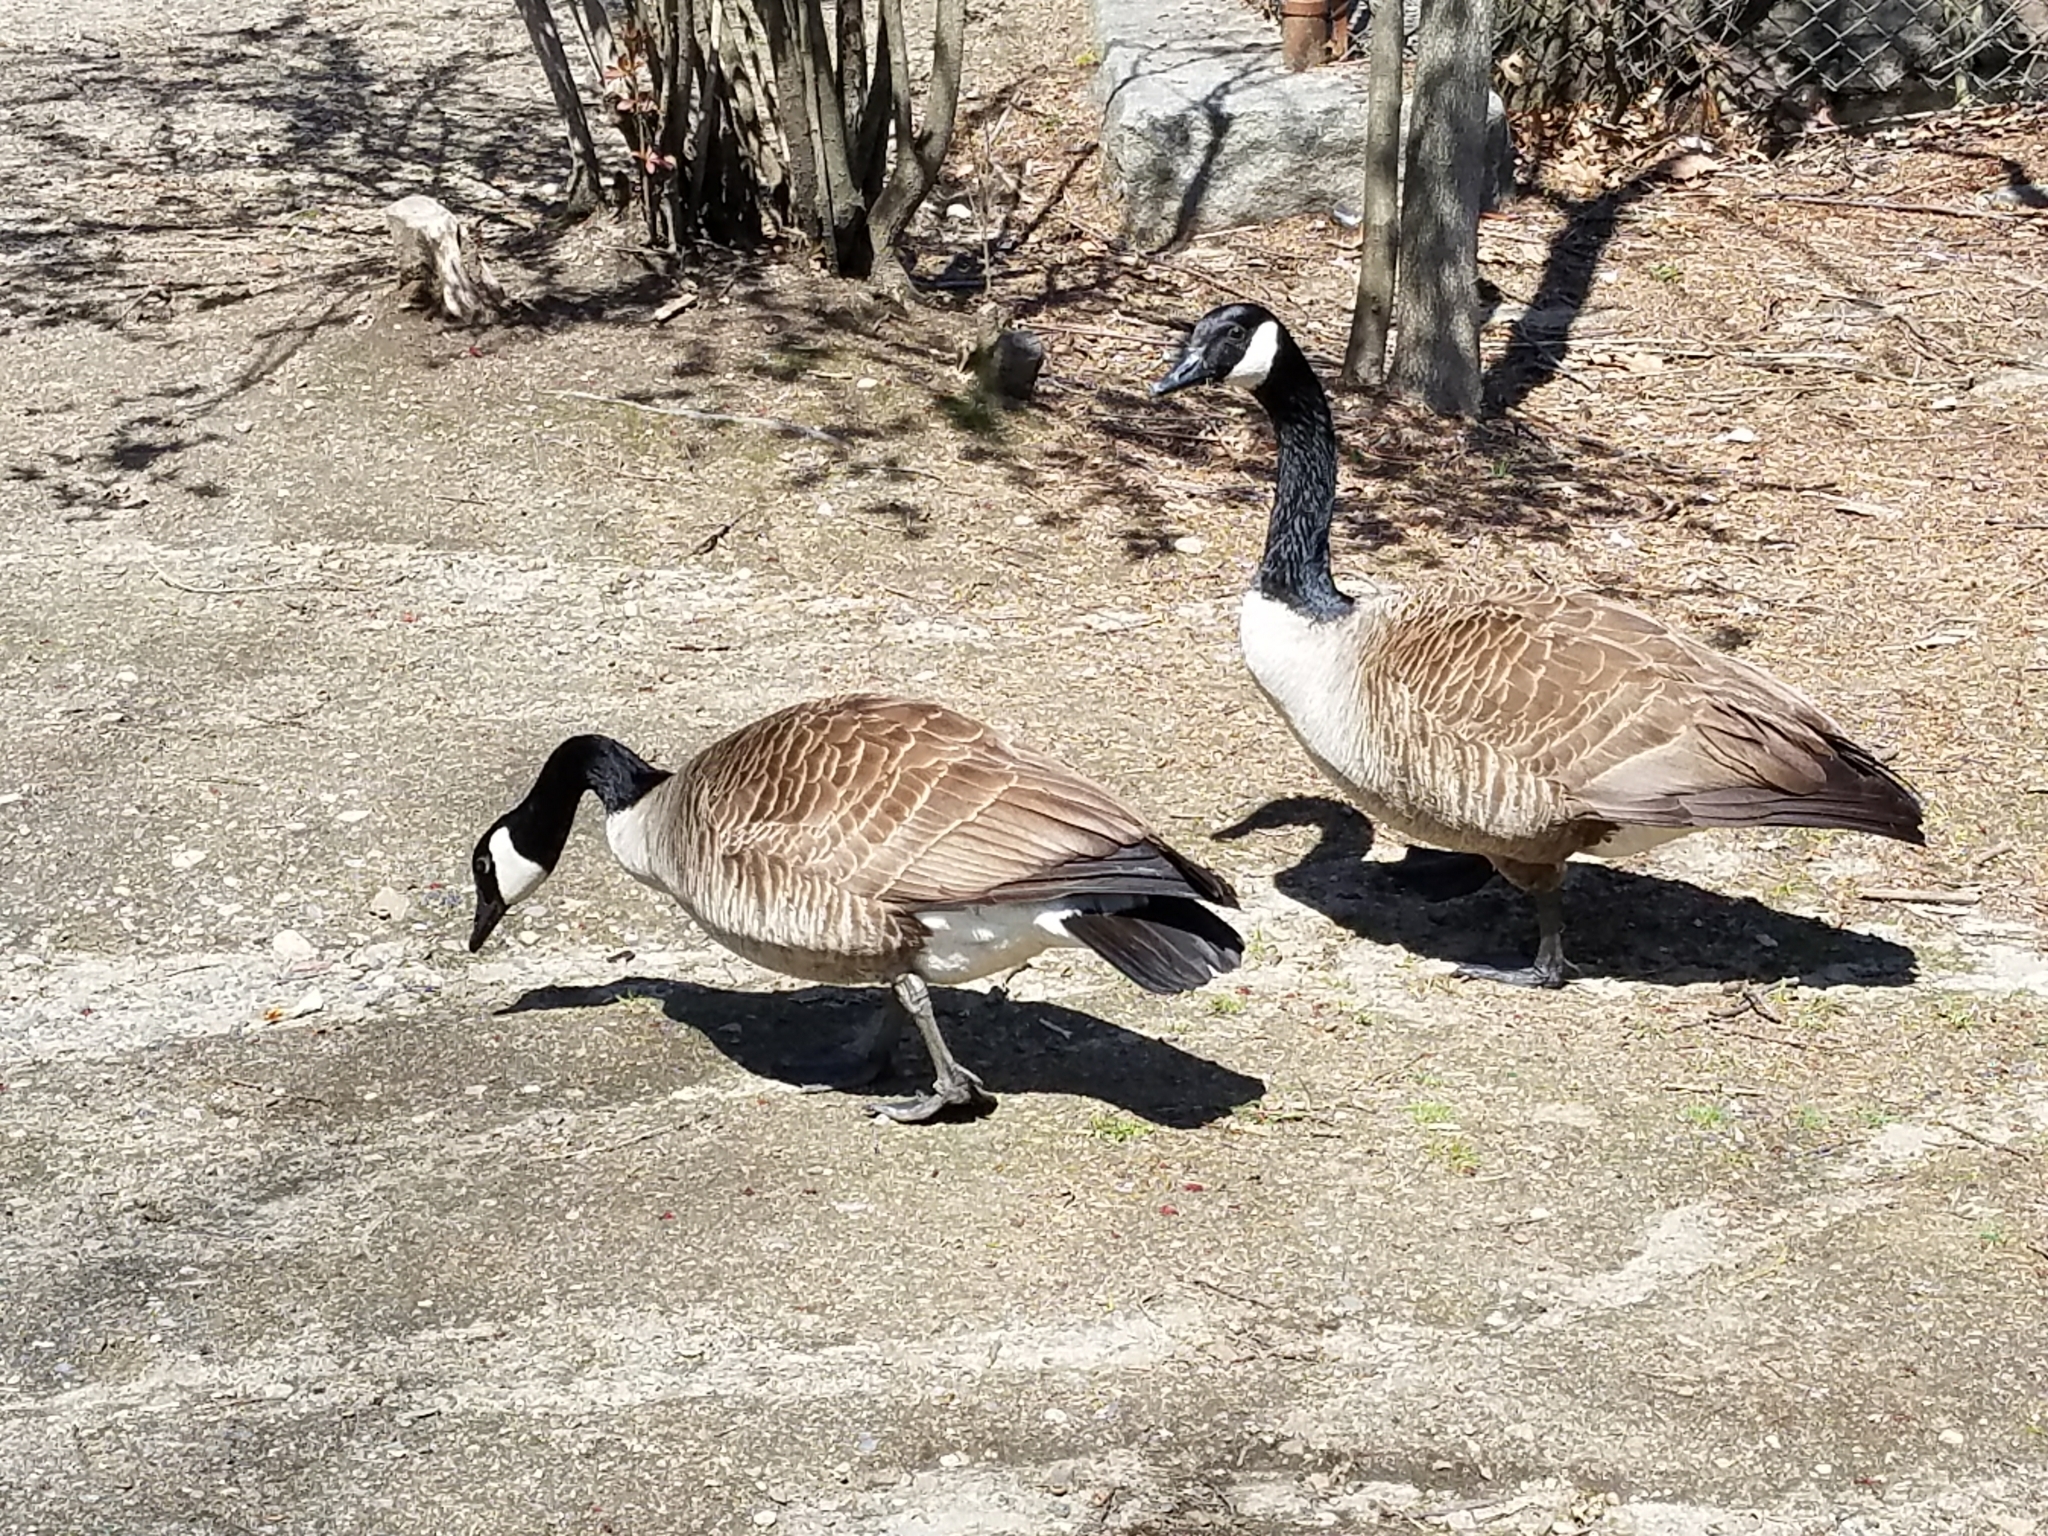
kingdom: Animalia
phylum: Chordata
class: Aves
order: Anseriformes
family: Anatidae
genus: Branta
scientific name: Branta canadensis
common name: Canada goose
